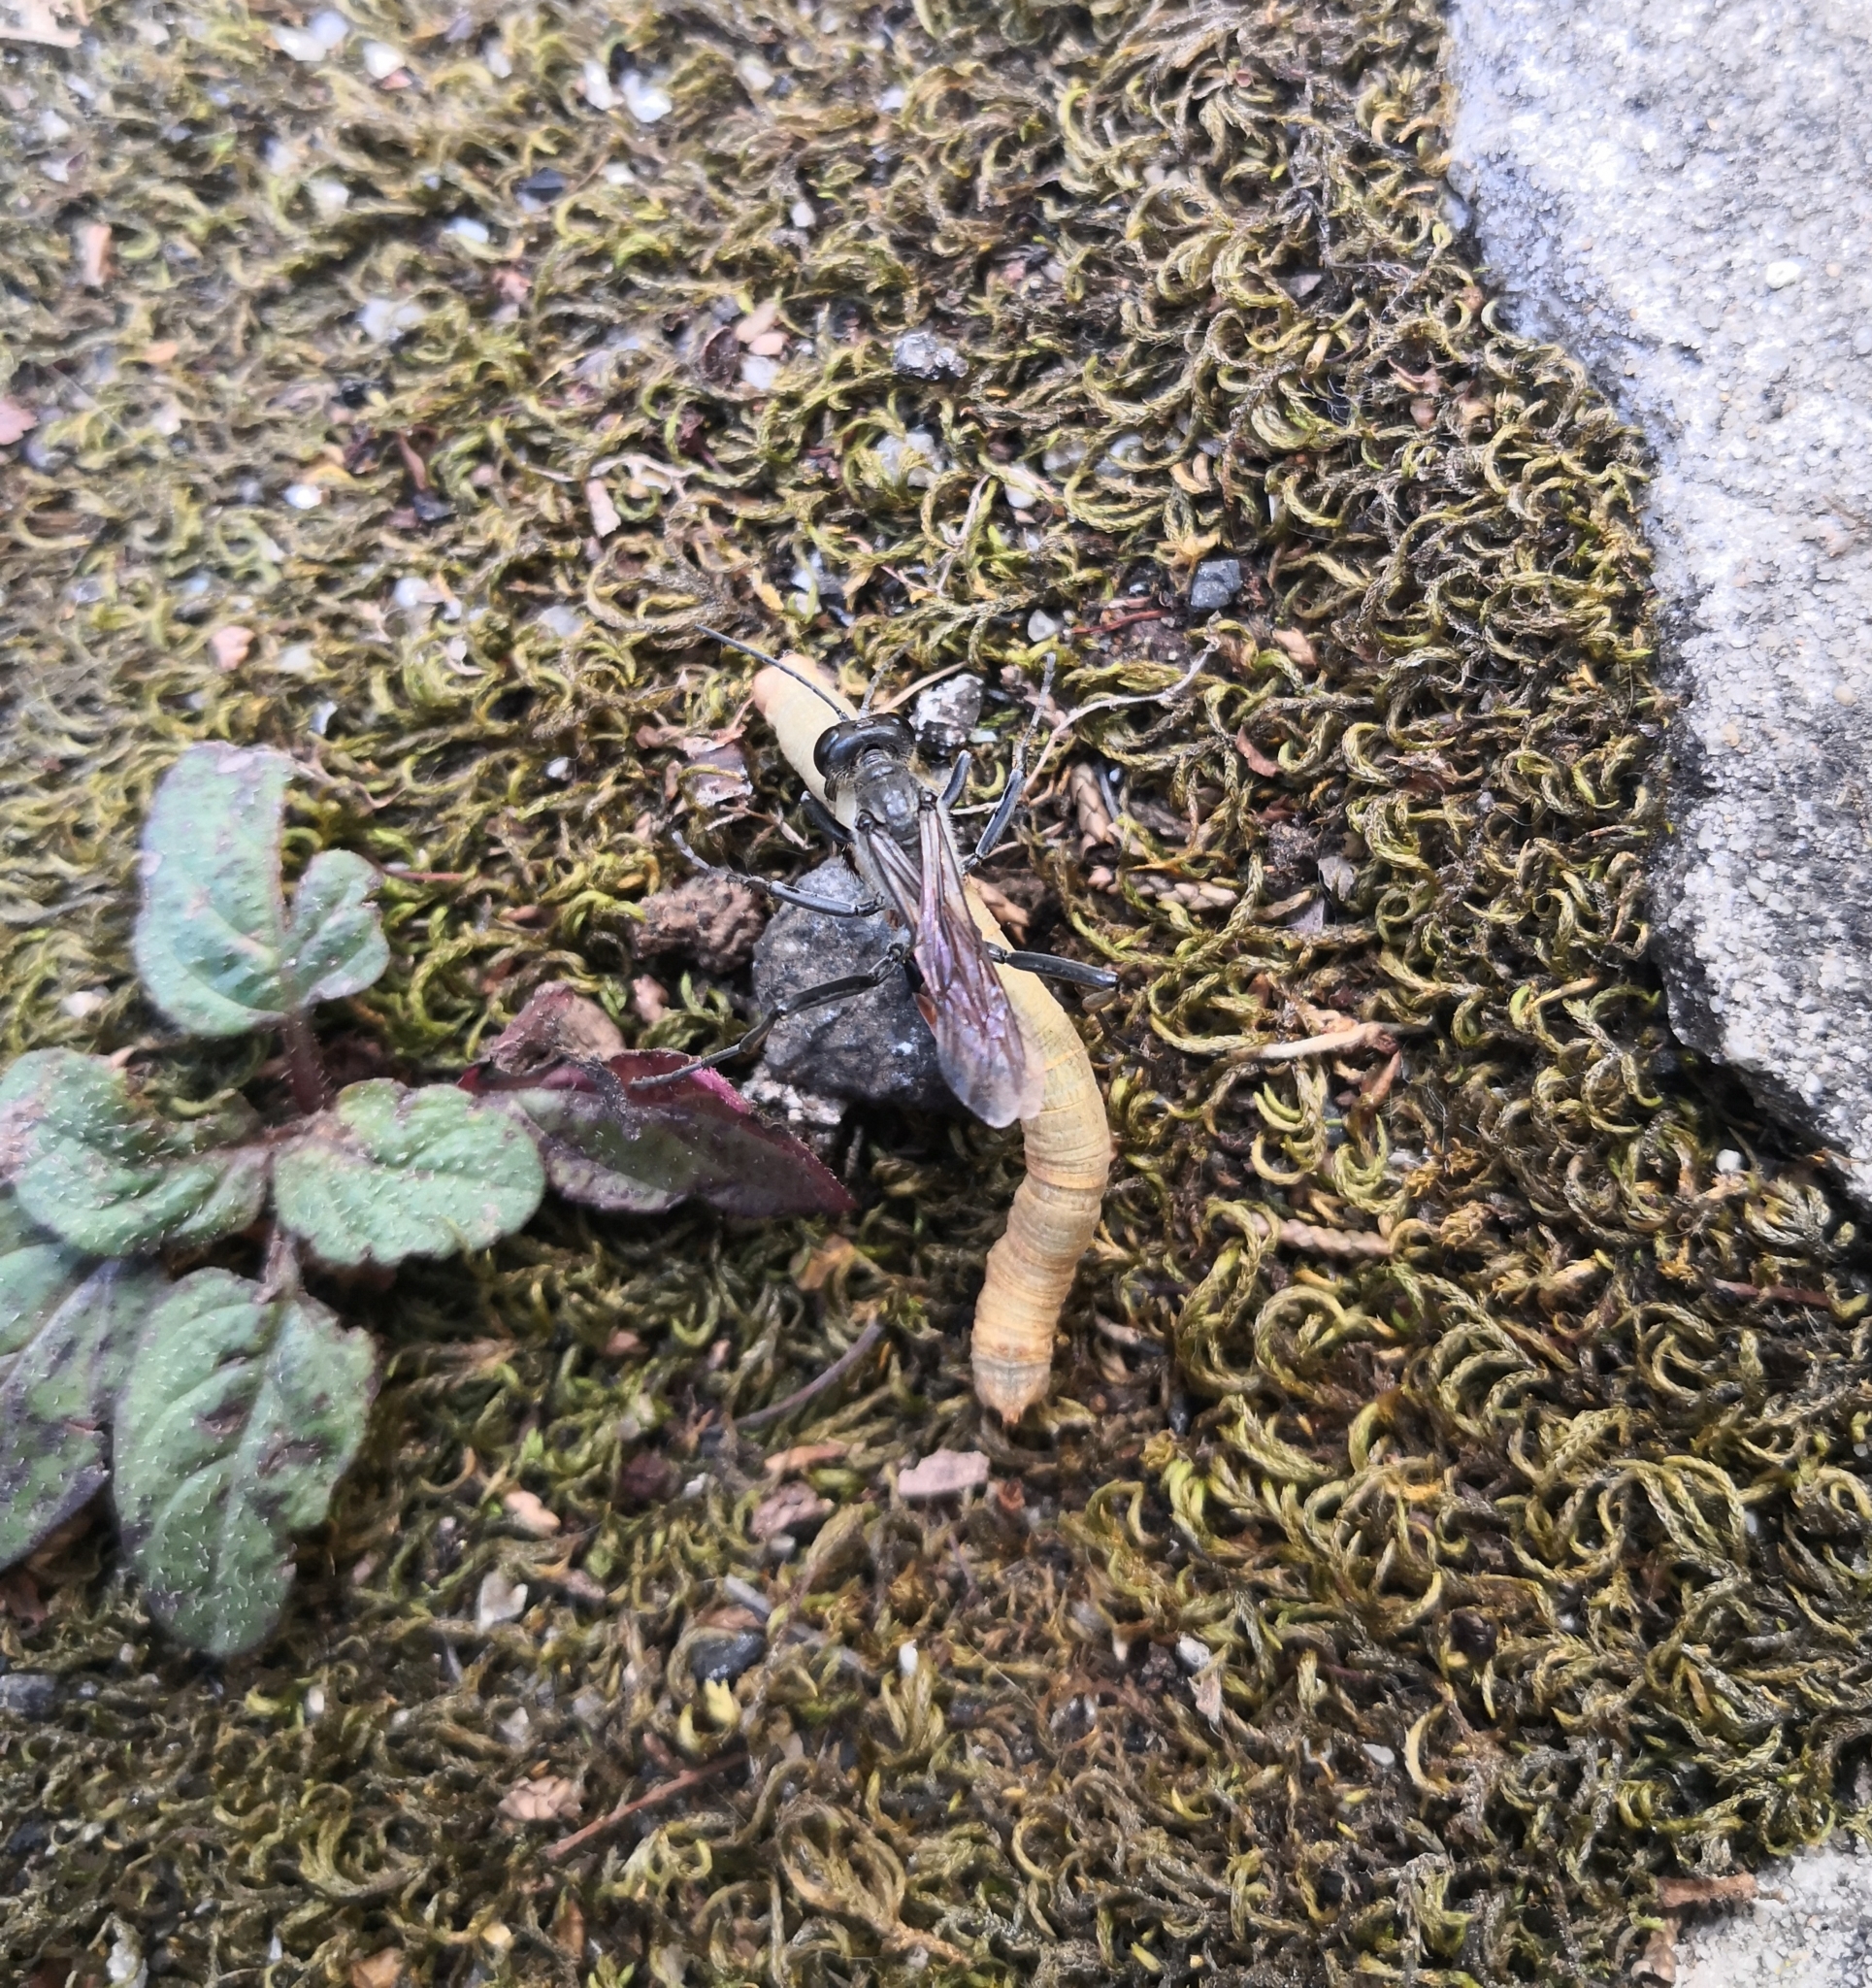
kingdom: Animalia
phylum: Arthropoda
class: Insecta
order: Hymenoptera
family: Sphecidae
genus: Ammophila
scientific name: Ammophila sabulosa
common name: Red banded sand wasp
